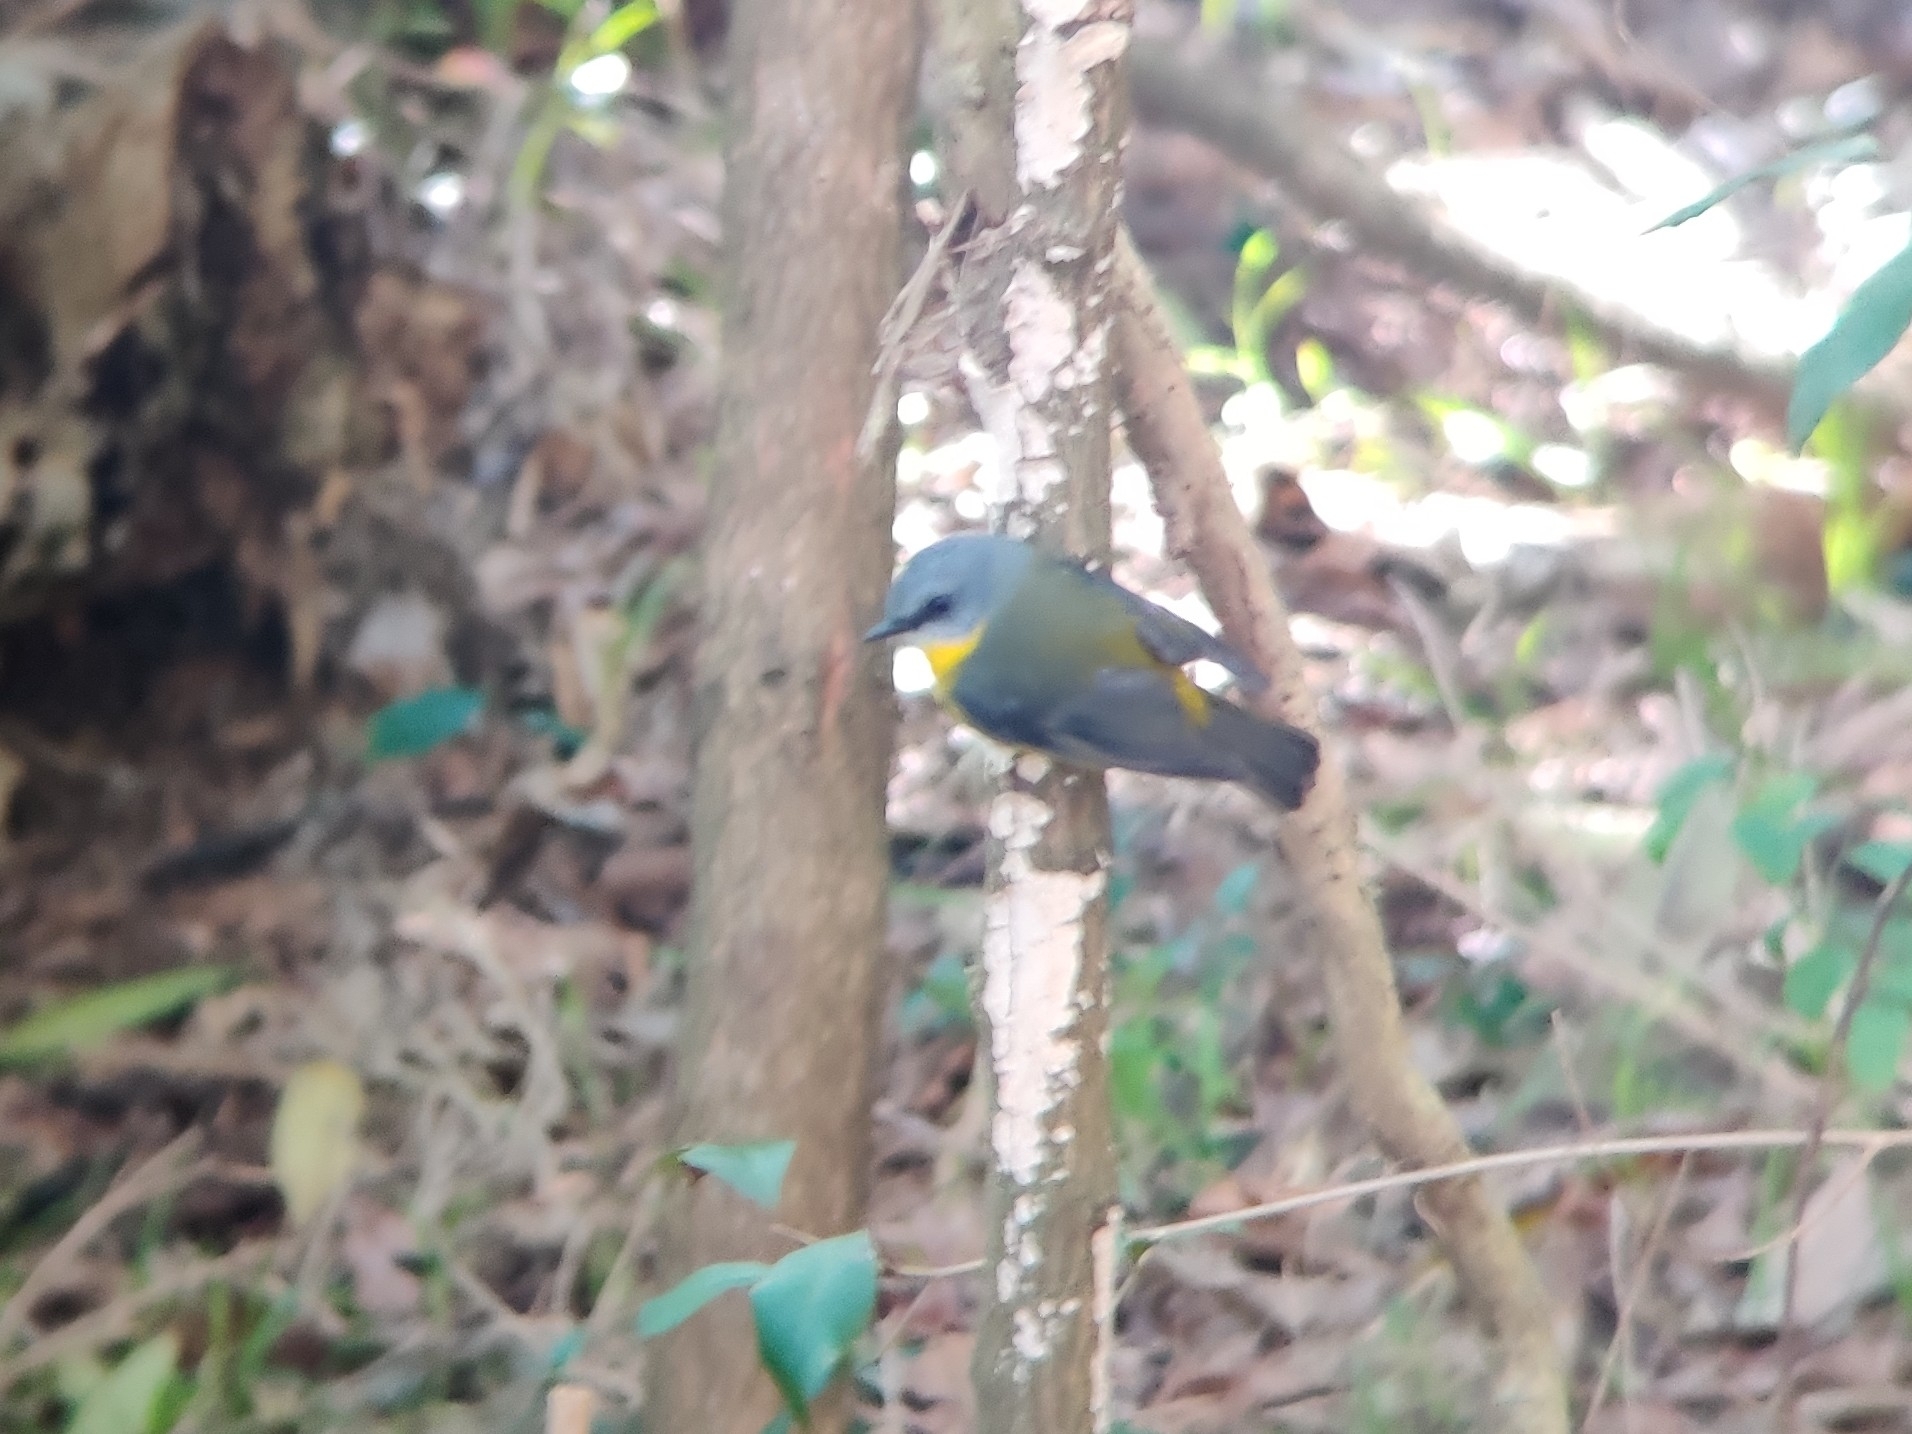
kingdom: Animalia
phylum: Chordata
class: Aves
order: Passeriformes
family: Petroicidae
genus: Eopsaltria
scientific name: Eopsaltria australis
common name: Eastern yellow robin
